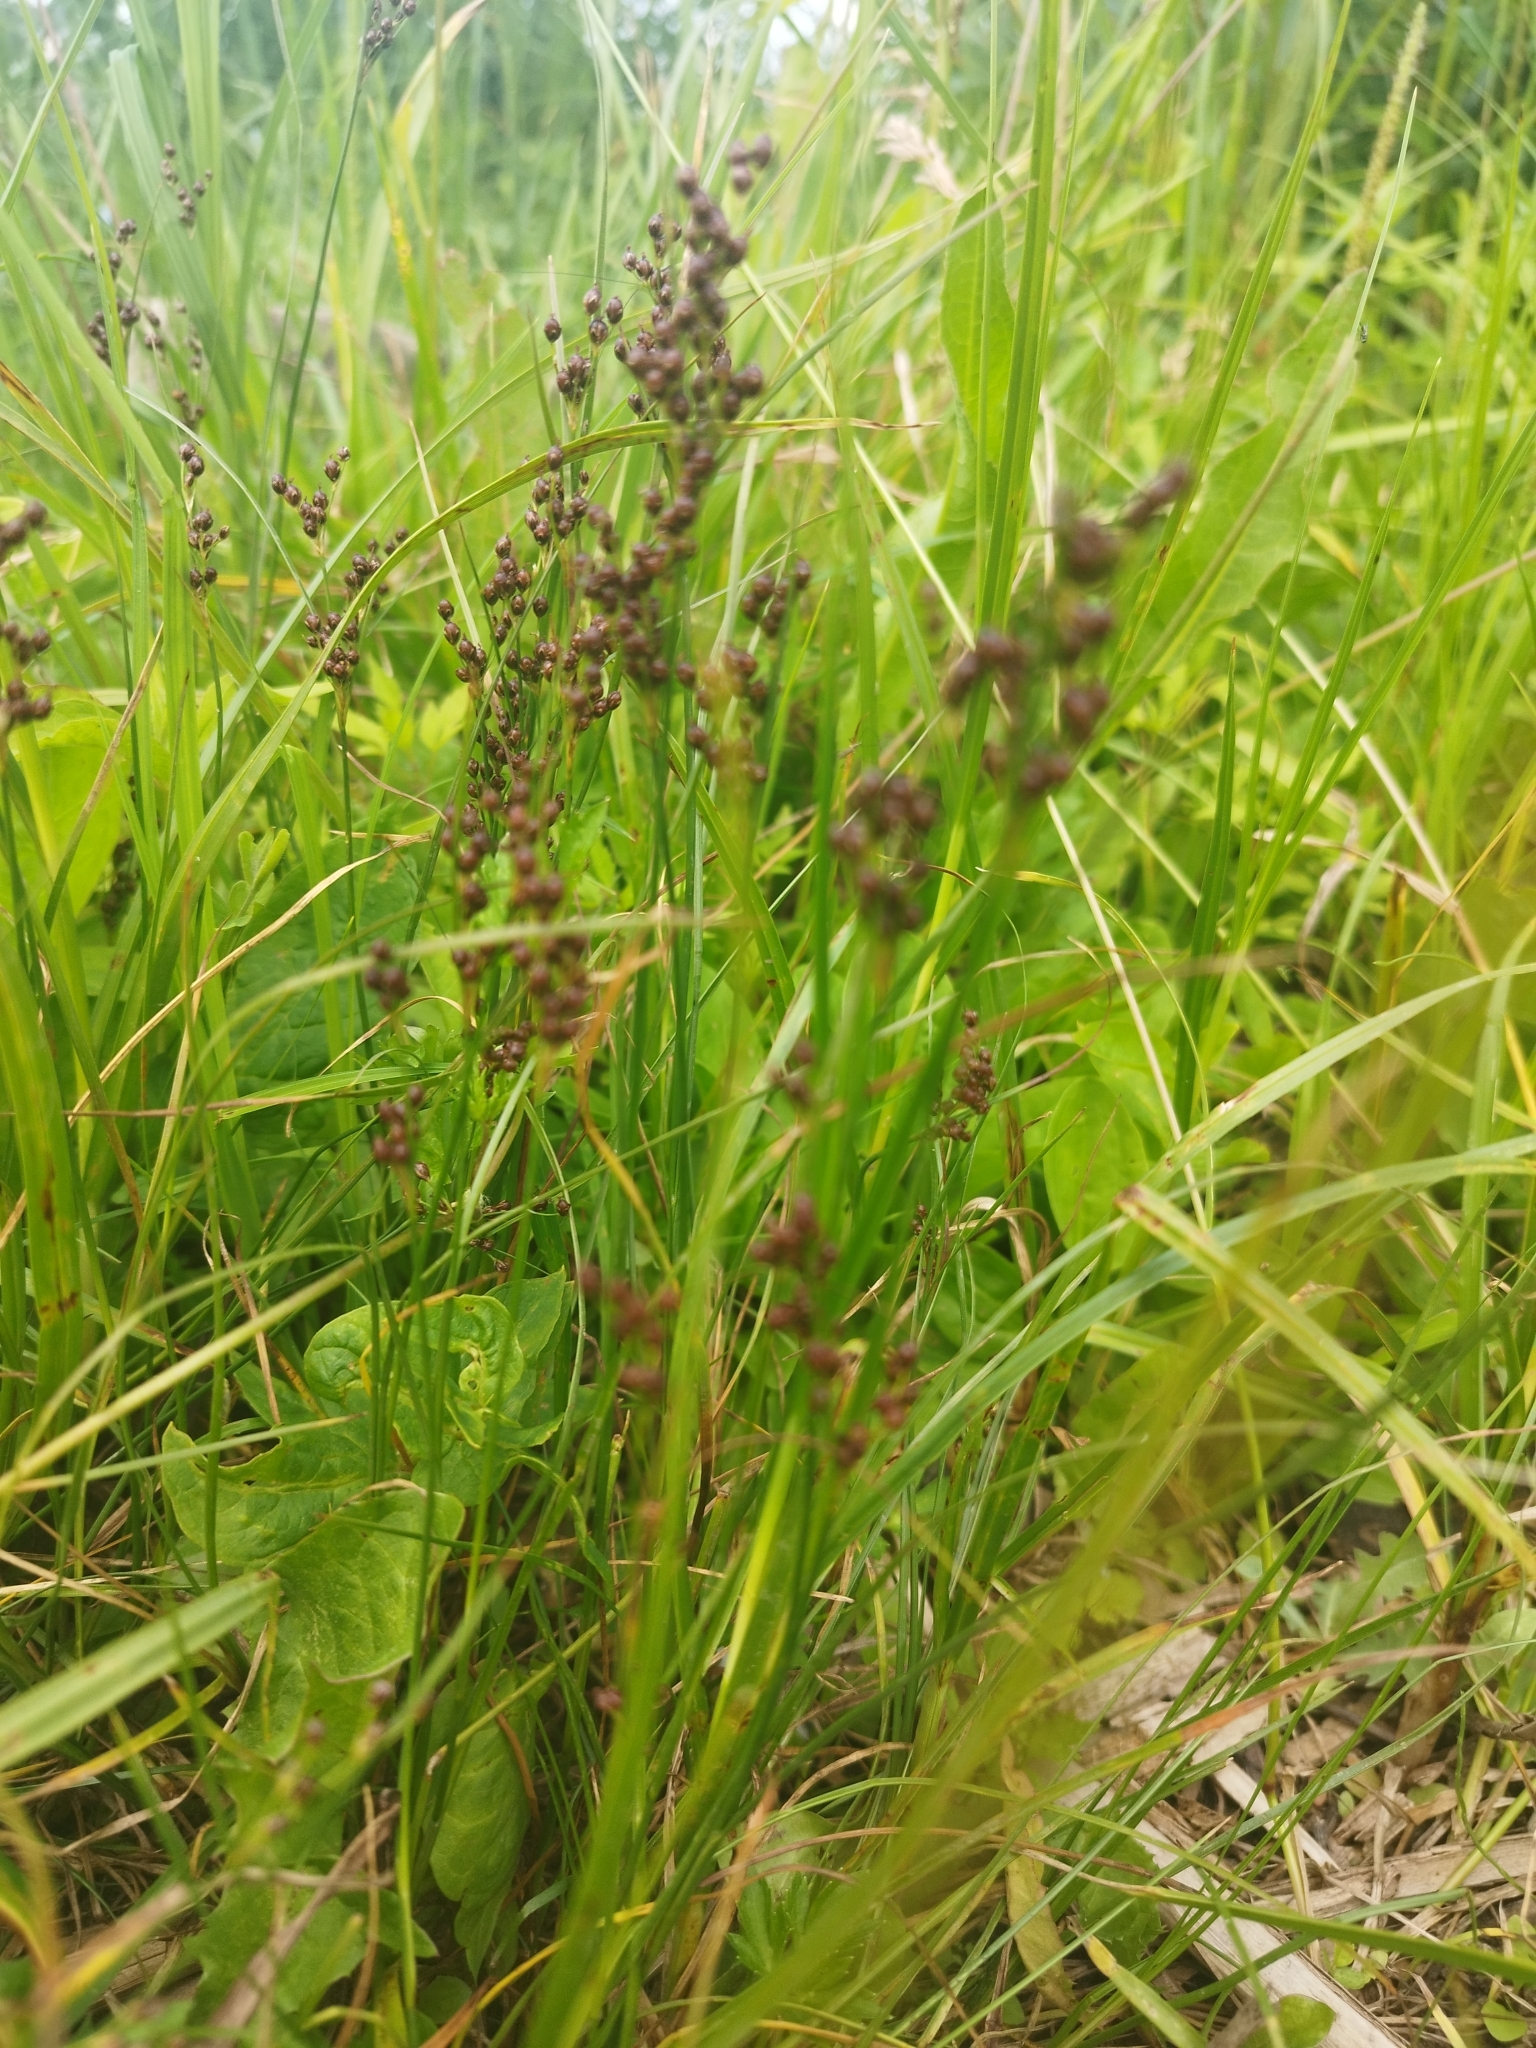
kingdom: Plantae
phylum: Tracheophyta
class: Liliopsida
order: Poales
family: Juncaceae
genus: Juncus
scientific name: Juncus compressus
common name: Round-fruited rush
